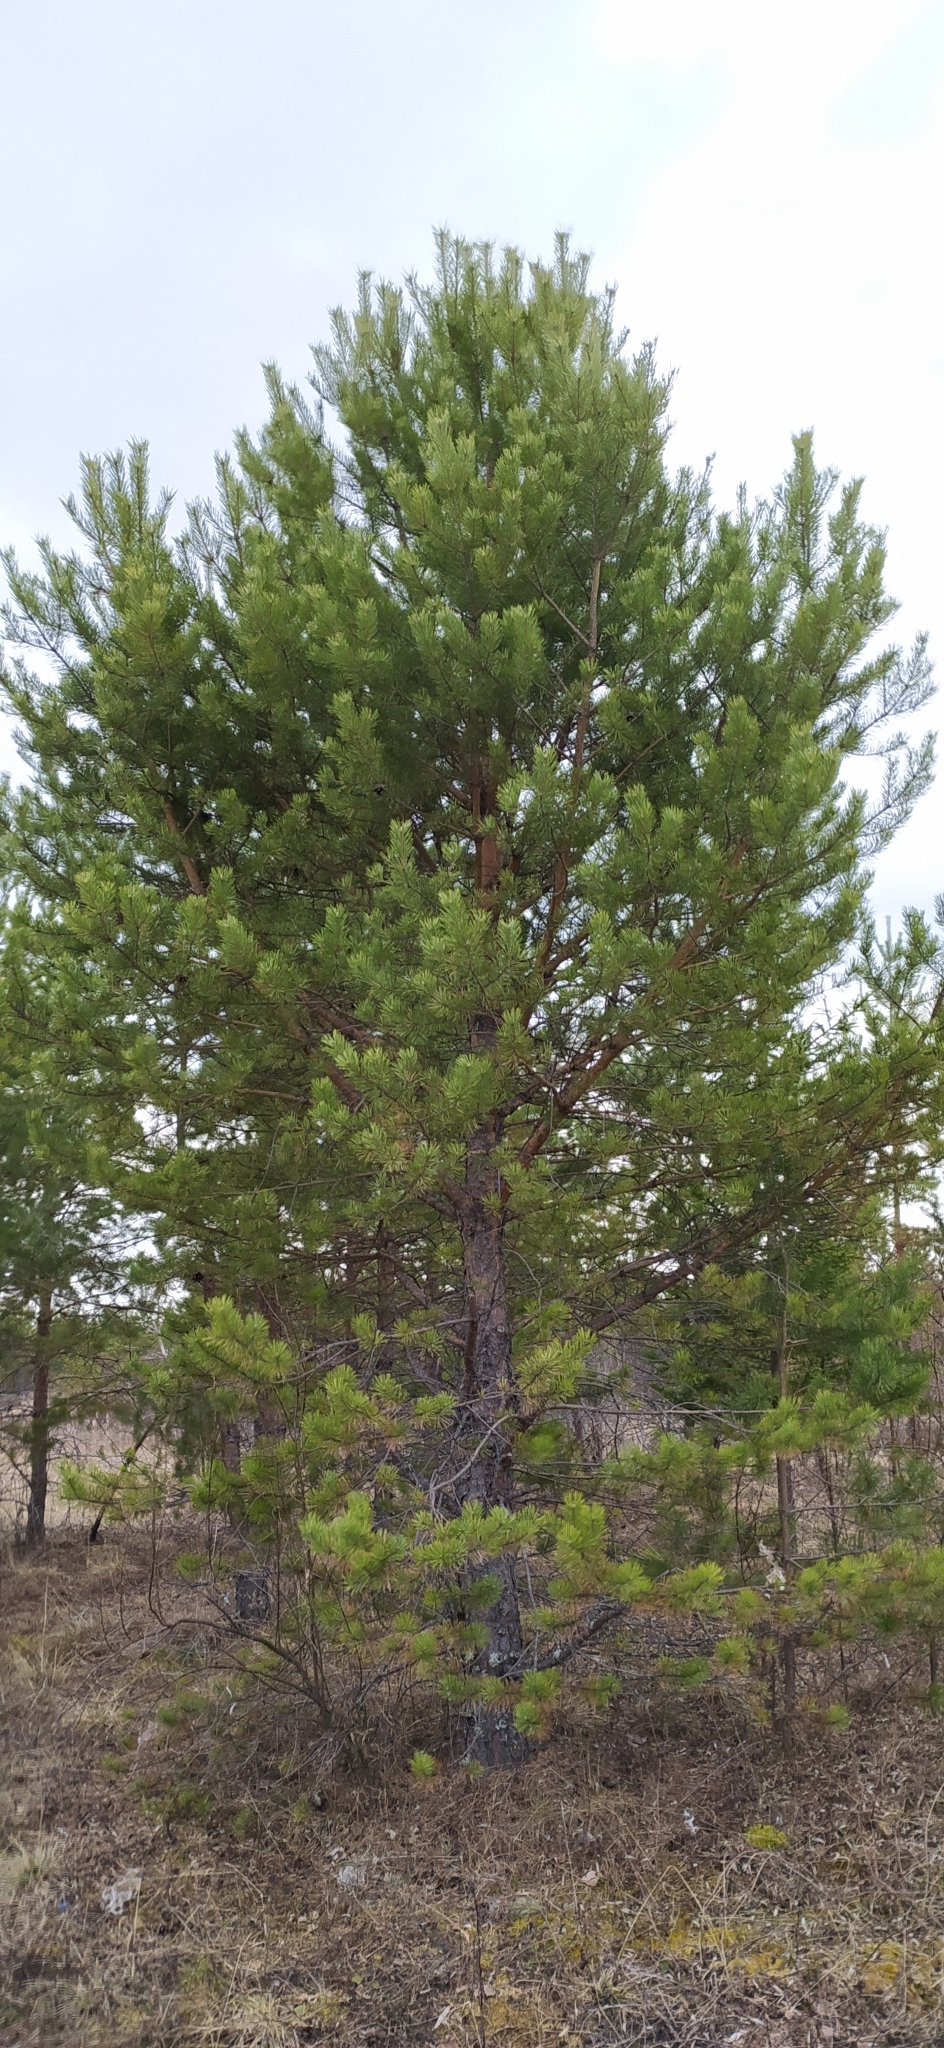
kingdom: Plantae
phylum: Tracheophyta
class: Pinopsida
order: Pinales
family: Pinaceae
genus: Pinus
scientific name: Pinus sylvestris
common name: Scots pine
